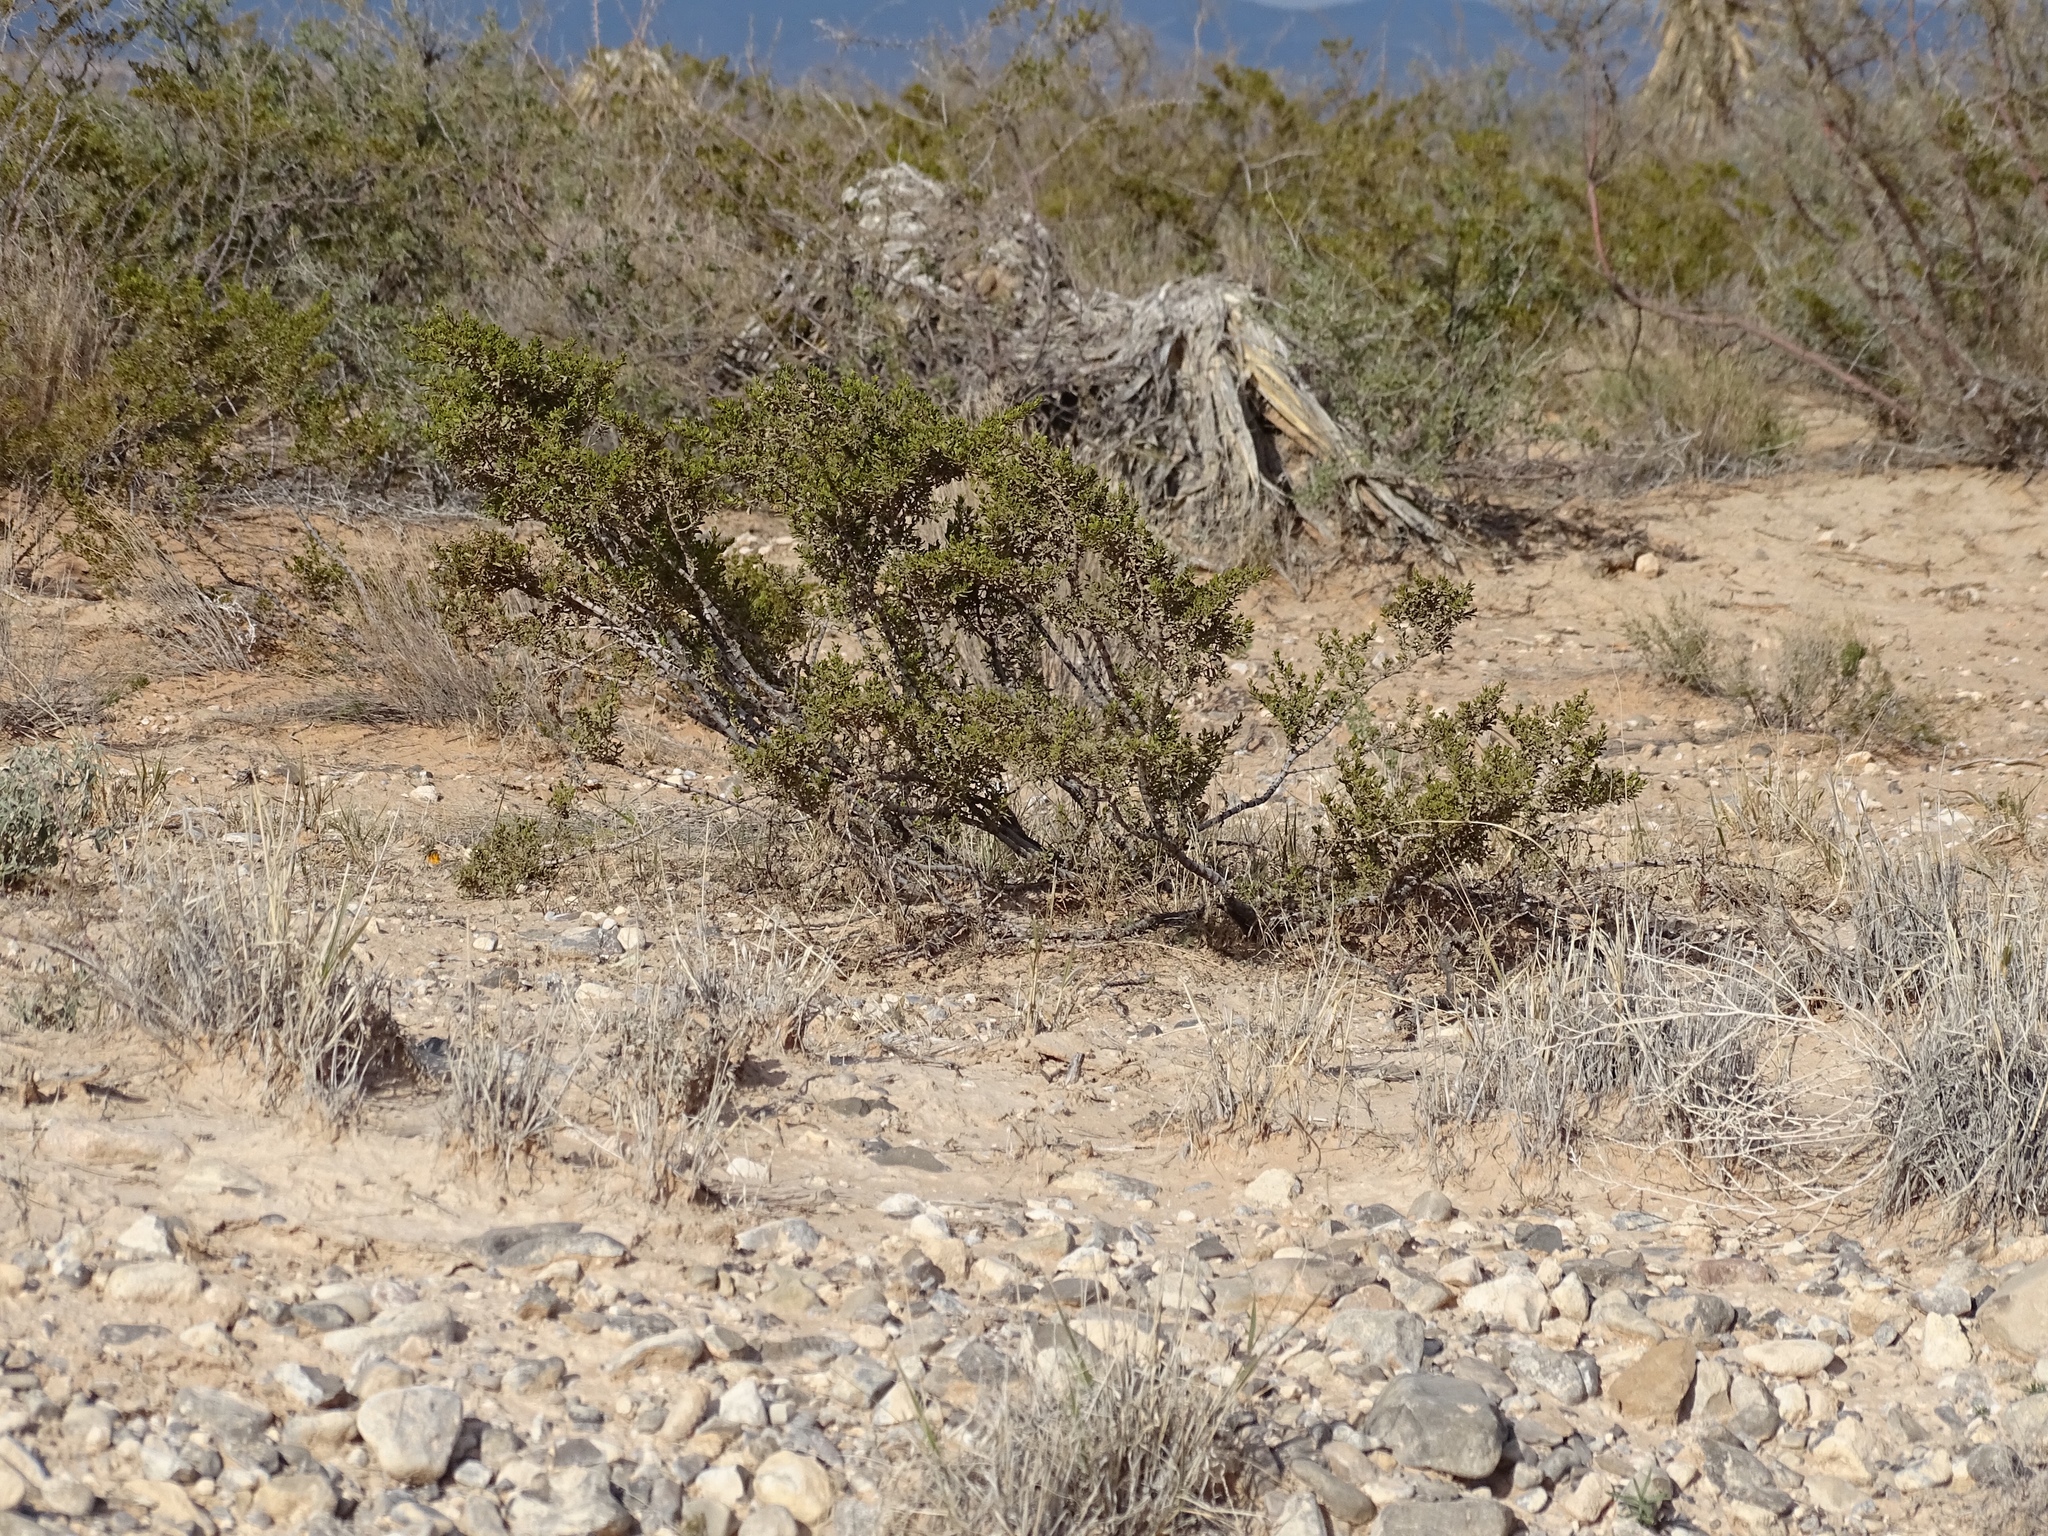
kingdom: Plantae
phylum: Tracheophyta
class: Magnoliopsida
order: Zygophyllales
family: Zygophyllaceae
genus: Larrea
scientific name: Larrea tridentata
